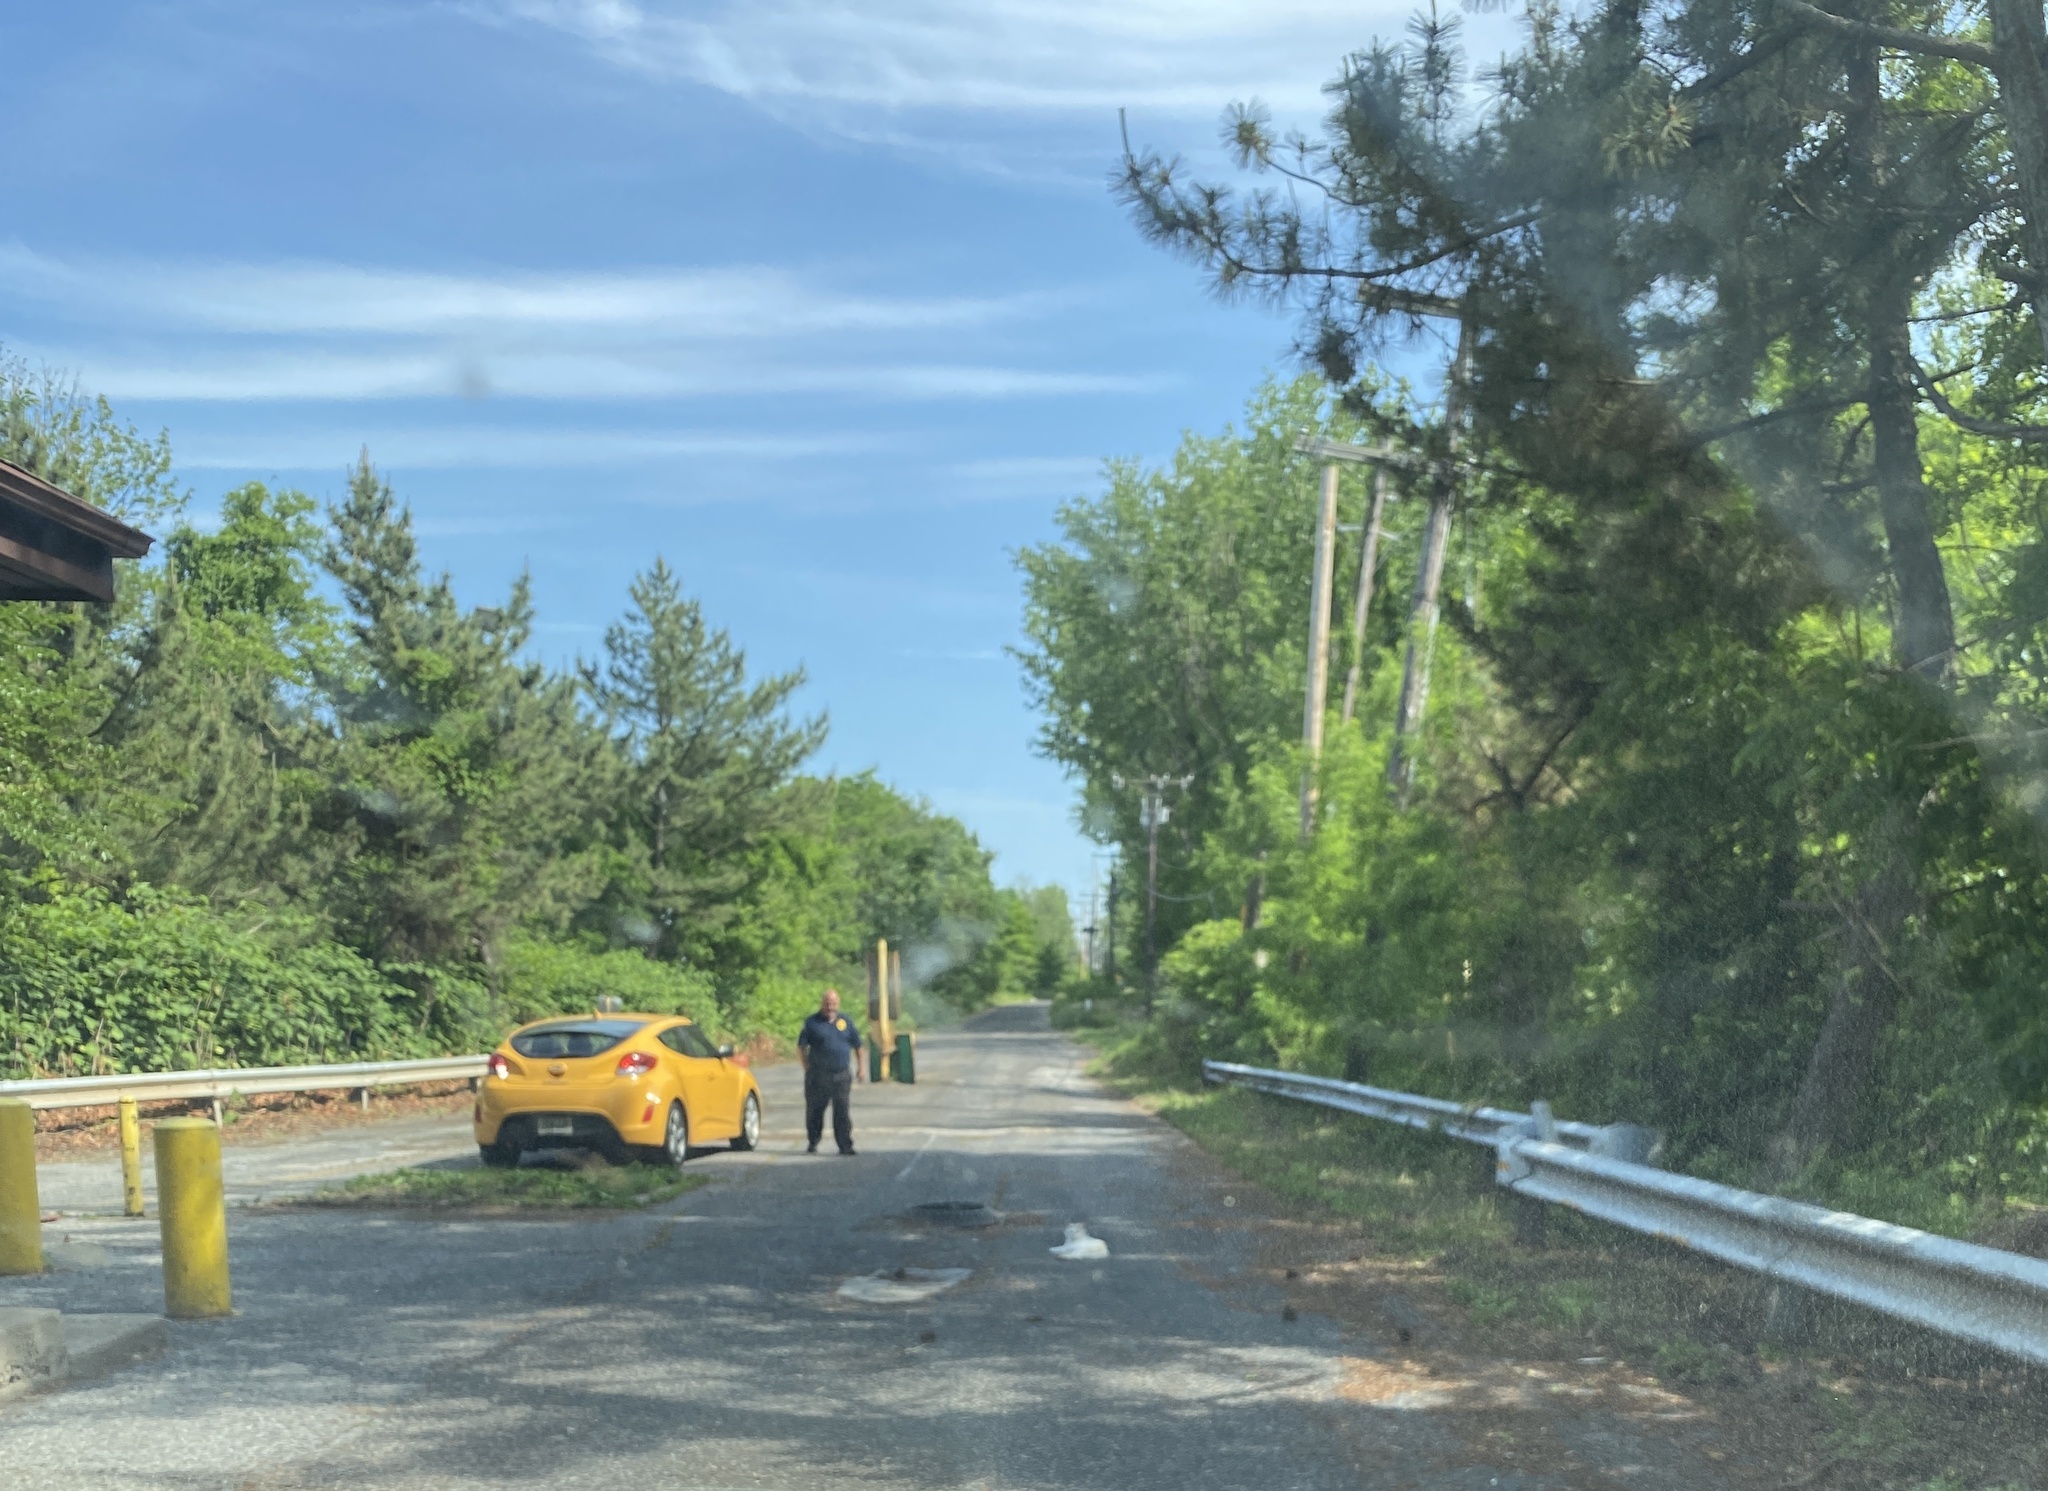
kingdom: Animalia
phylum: Chordata
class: Mammalia
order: Carnivora
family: Felidae
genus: Felis
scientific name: Felis catus
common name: Domestic cat
